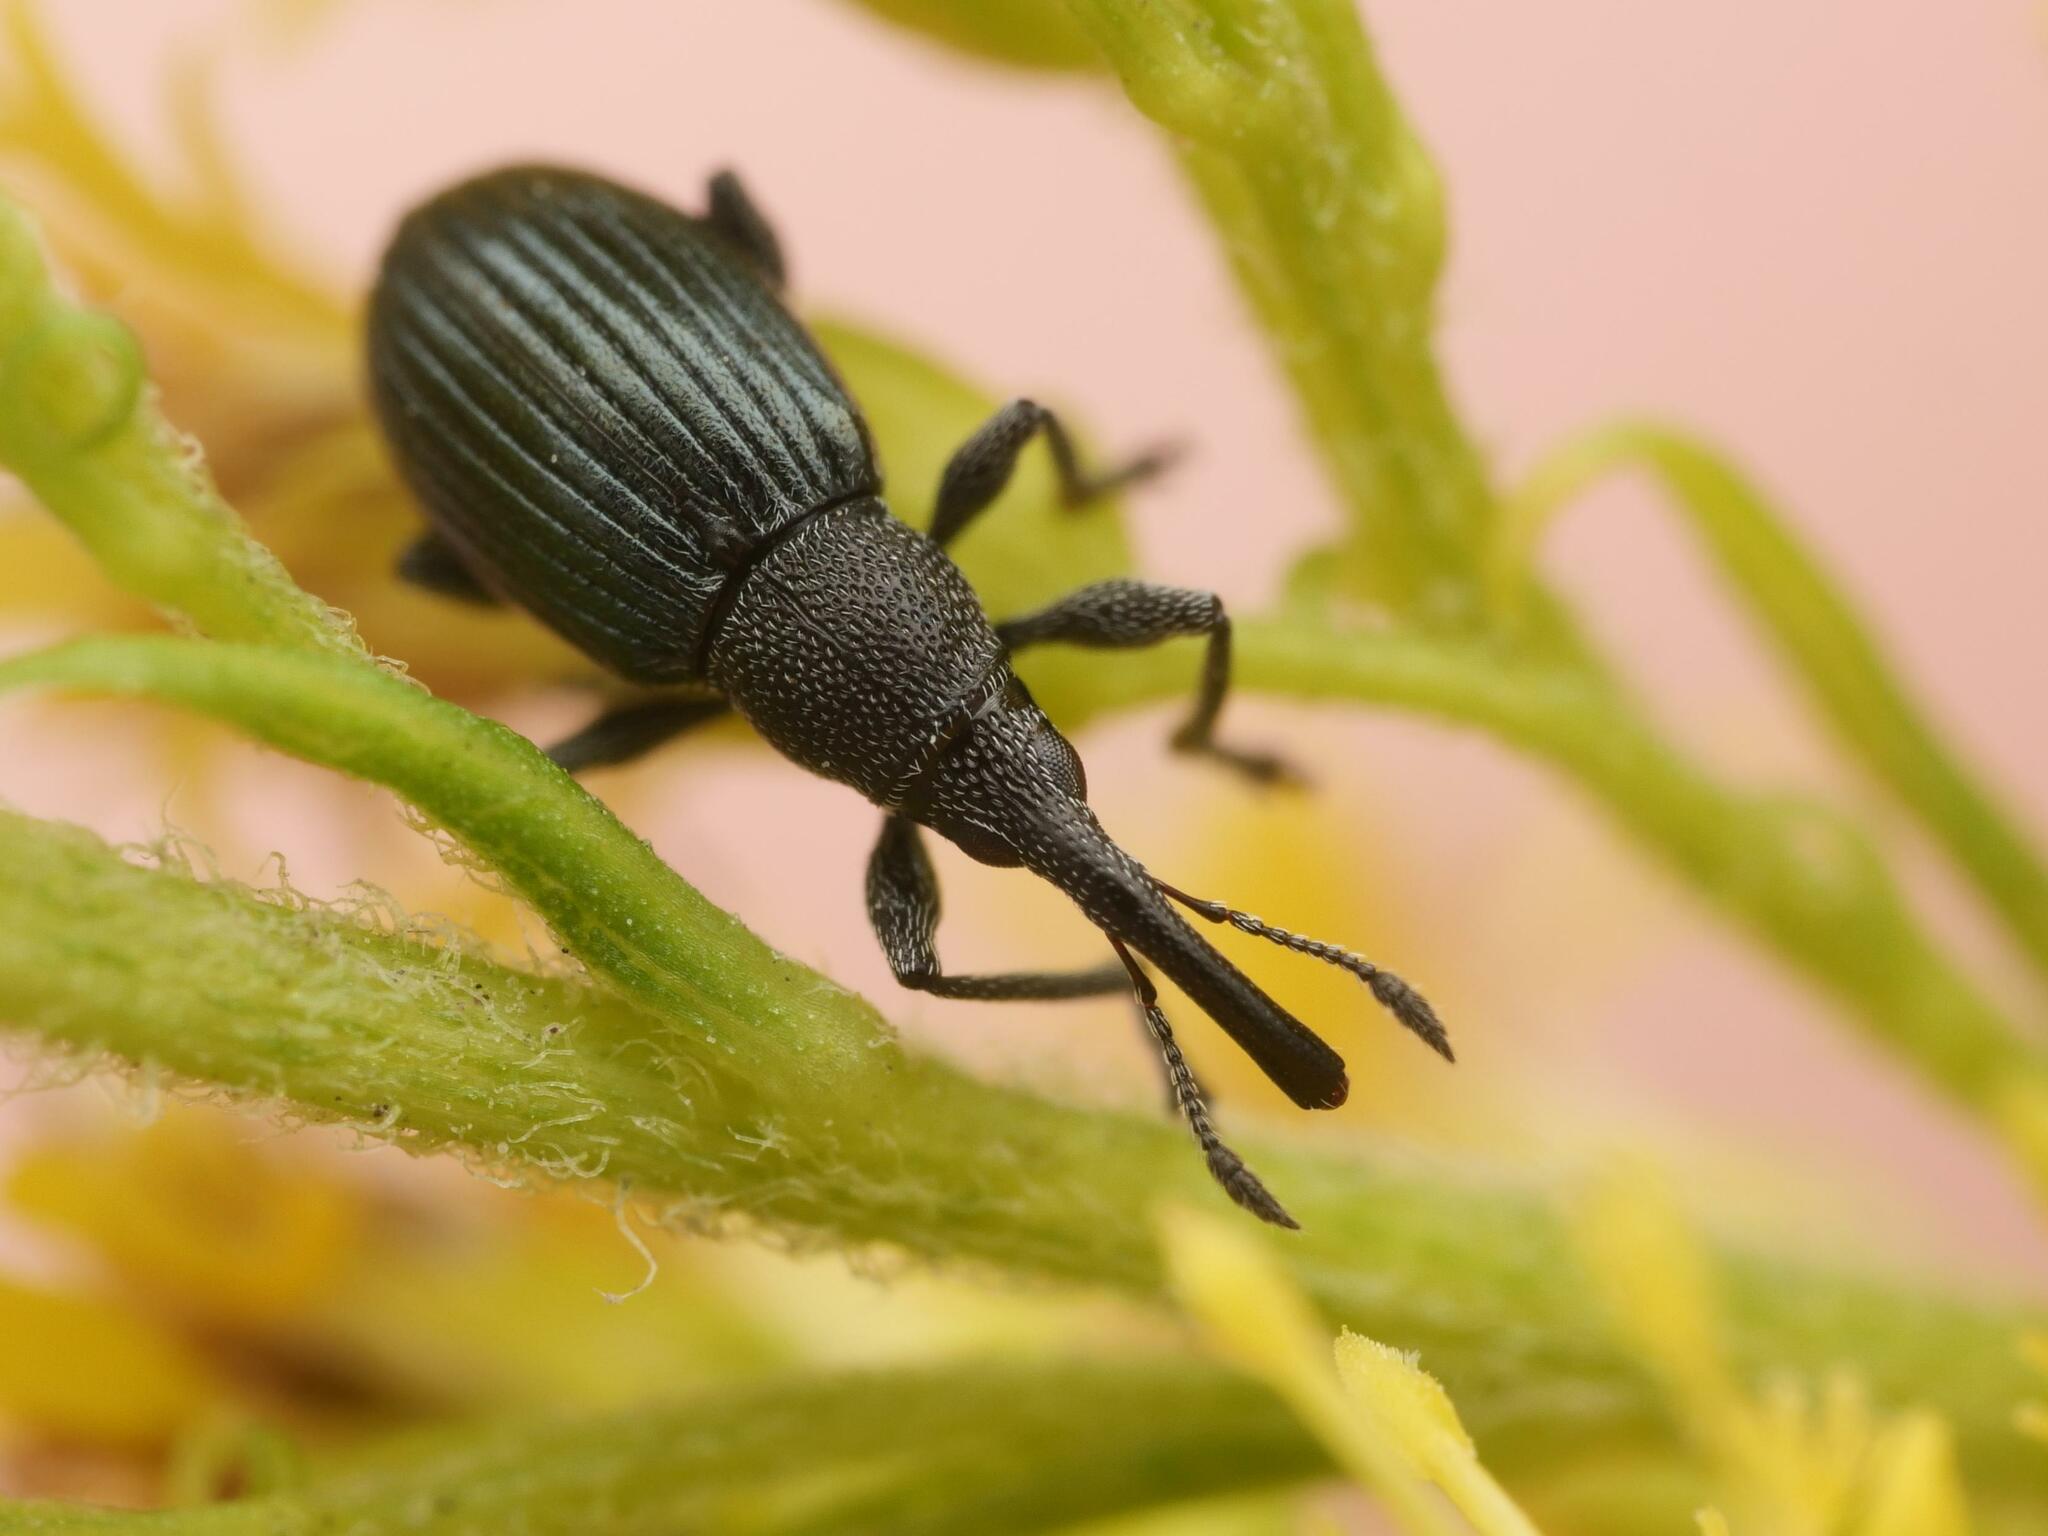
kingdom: Animalia
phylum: Arthropoda
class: Insecta
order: Coleoptera
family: Apionidae
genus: Aspidapion
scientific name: Aspidapion radiolus
